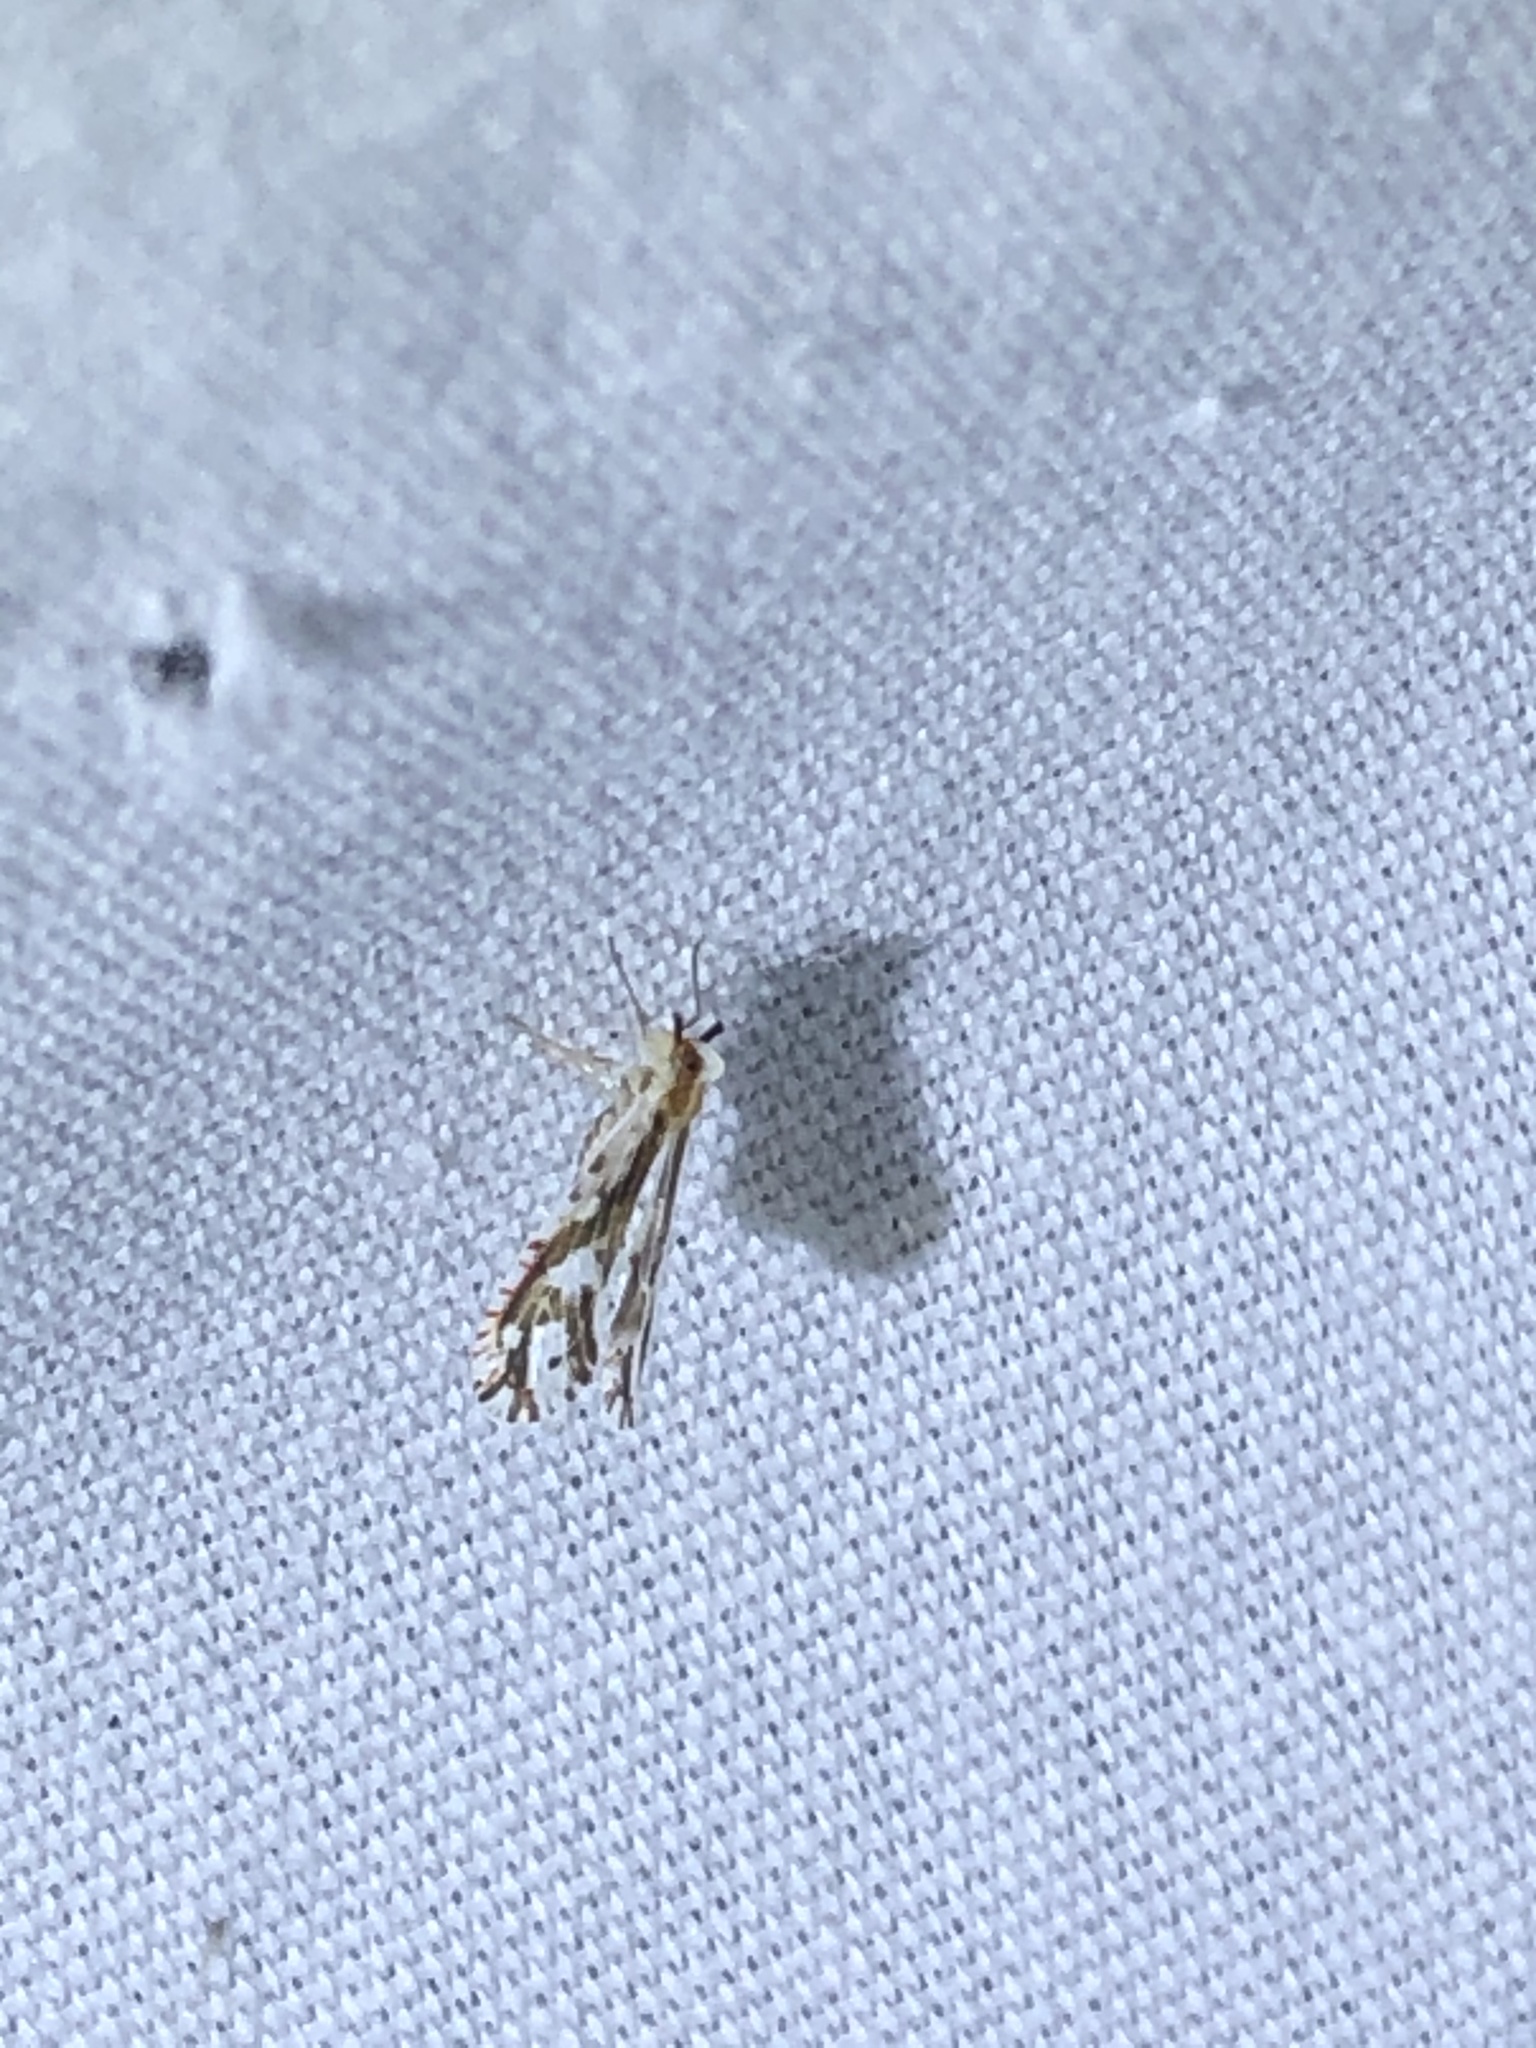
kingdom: Animalia
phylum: Arthropoda
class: Insecta
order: Hemiptera
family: Derbidae
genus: Anotia
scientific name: Anotia fitchi
